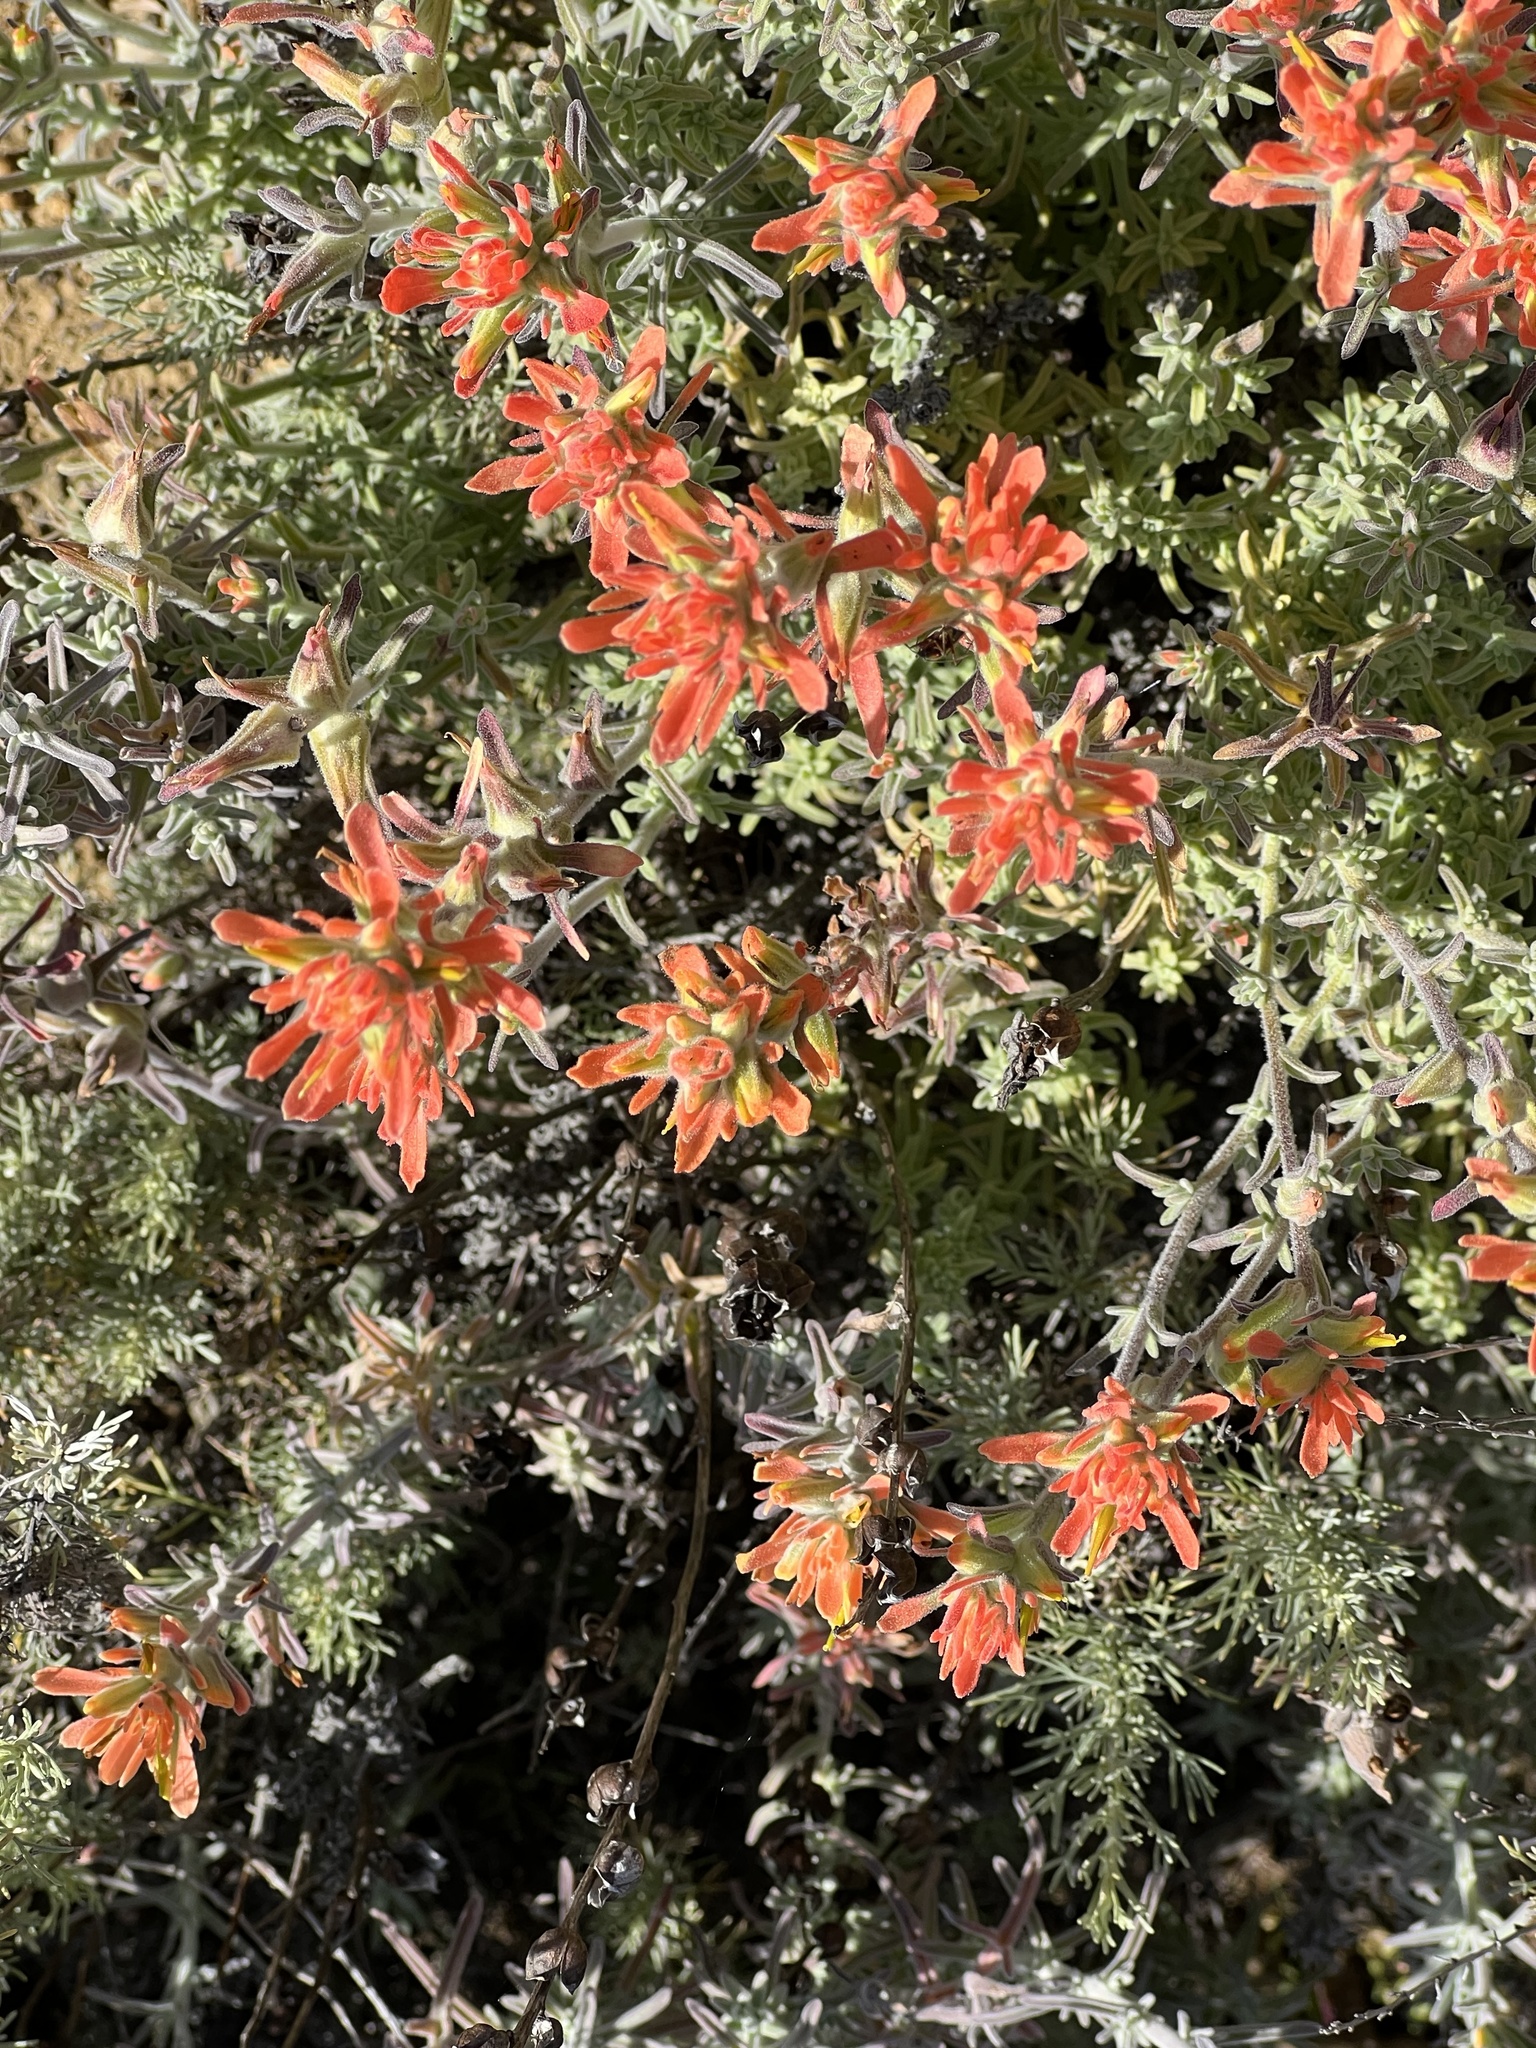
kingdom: Plantae
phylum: Tracheophyta
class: Magnoliopsida
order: Lamiales
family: Orobanchaceae
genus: Castilleja
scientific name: Castilleja foliolosa
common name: Woolly indian paintbrush
